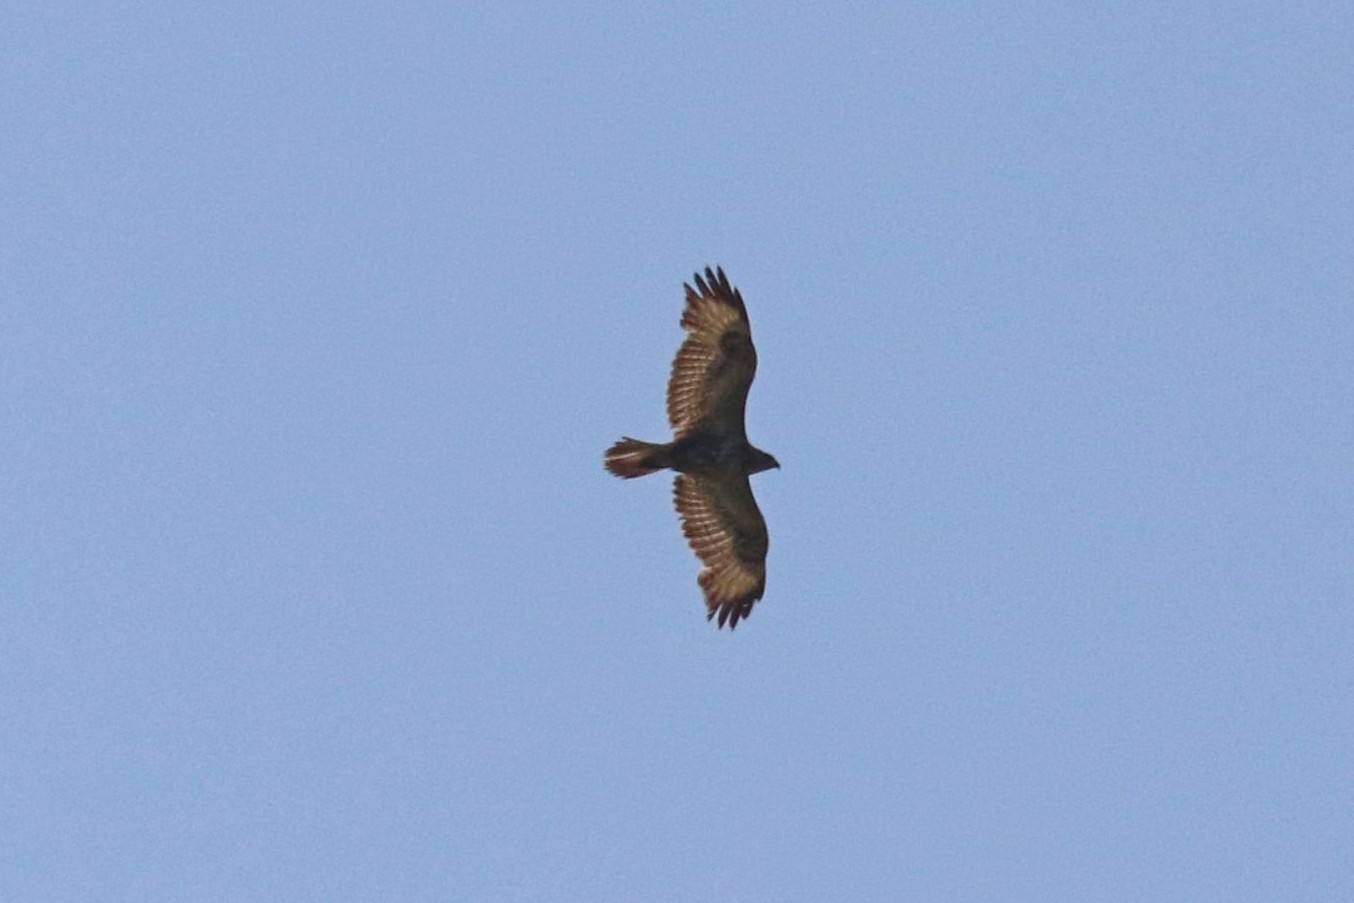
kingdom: Animalia
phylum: Chordata
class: Aves
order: Accipitriformes
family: Accipitridae
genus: Buteo
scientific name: Buteo buteo
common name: Common buzzard
